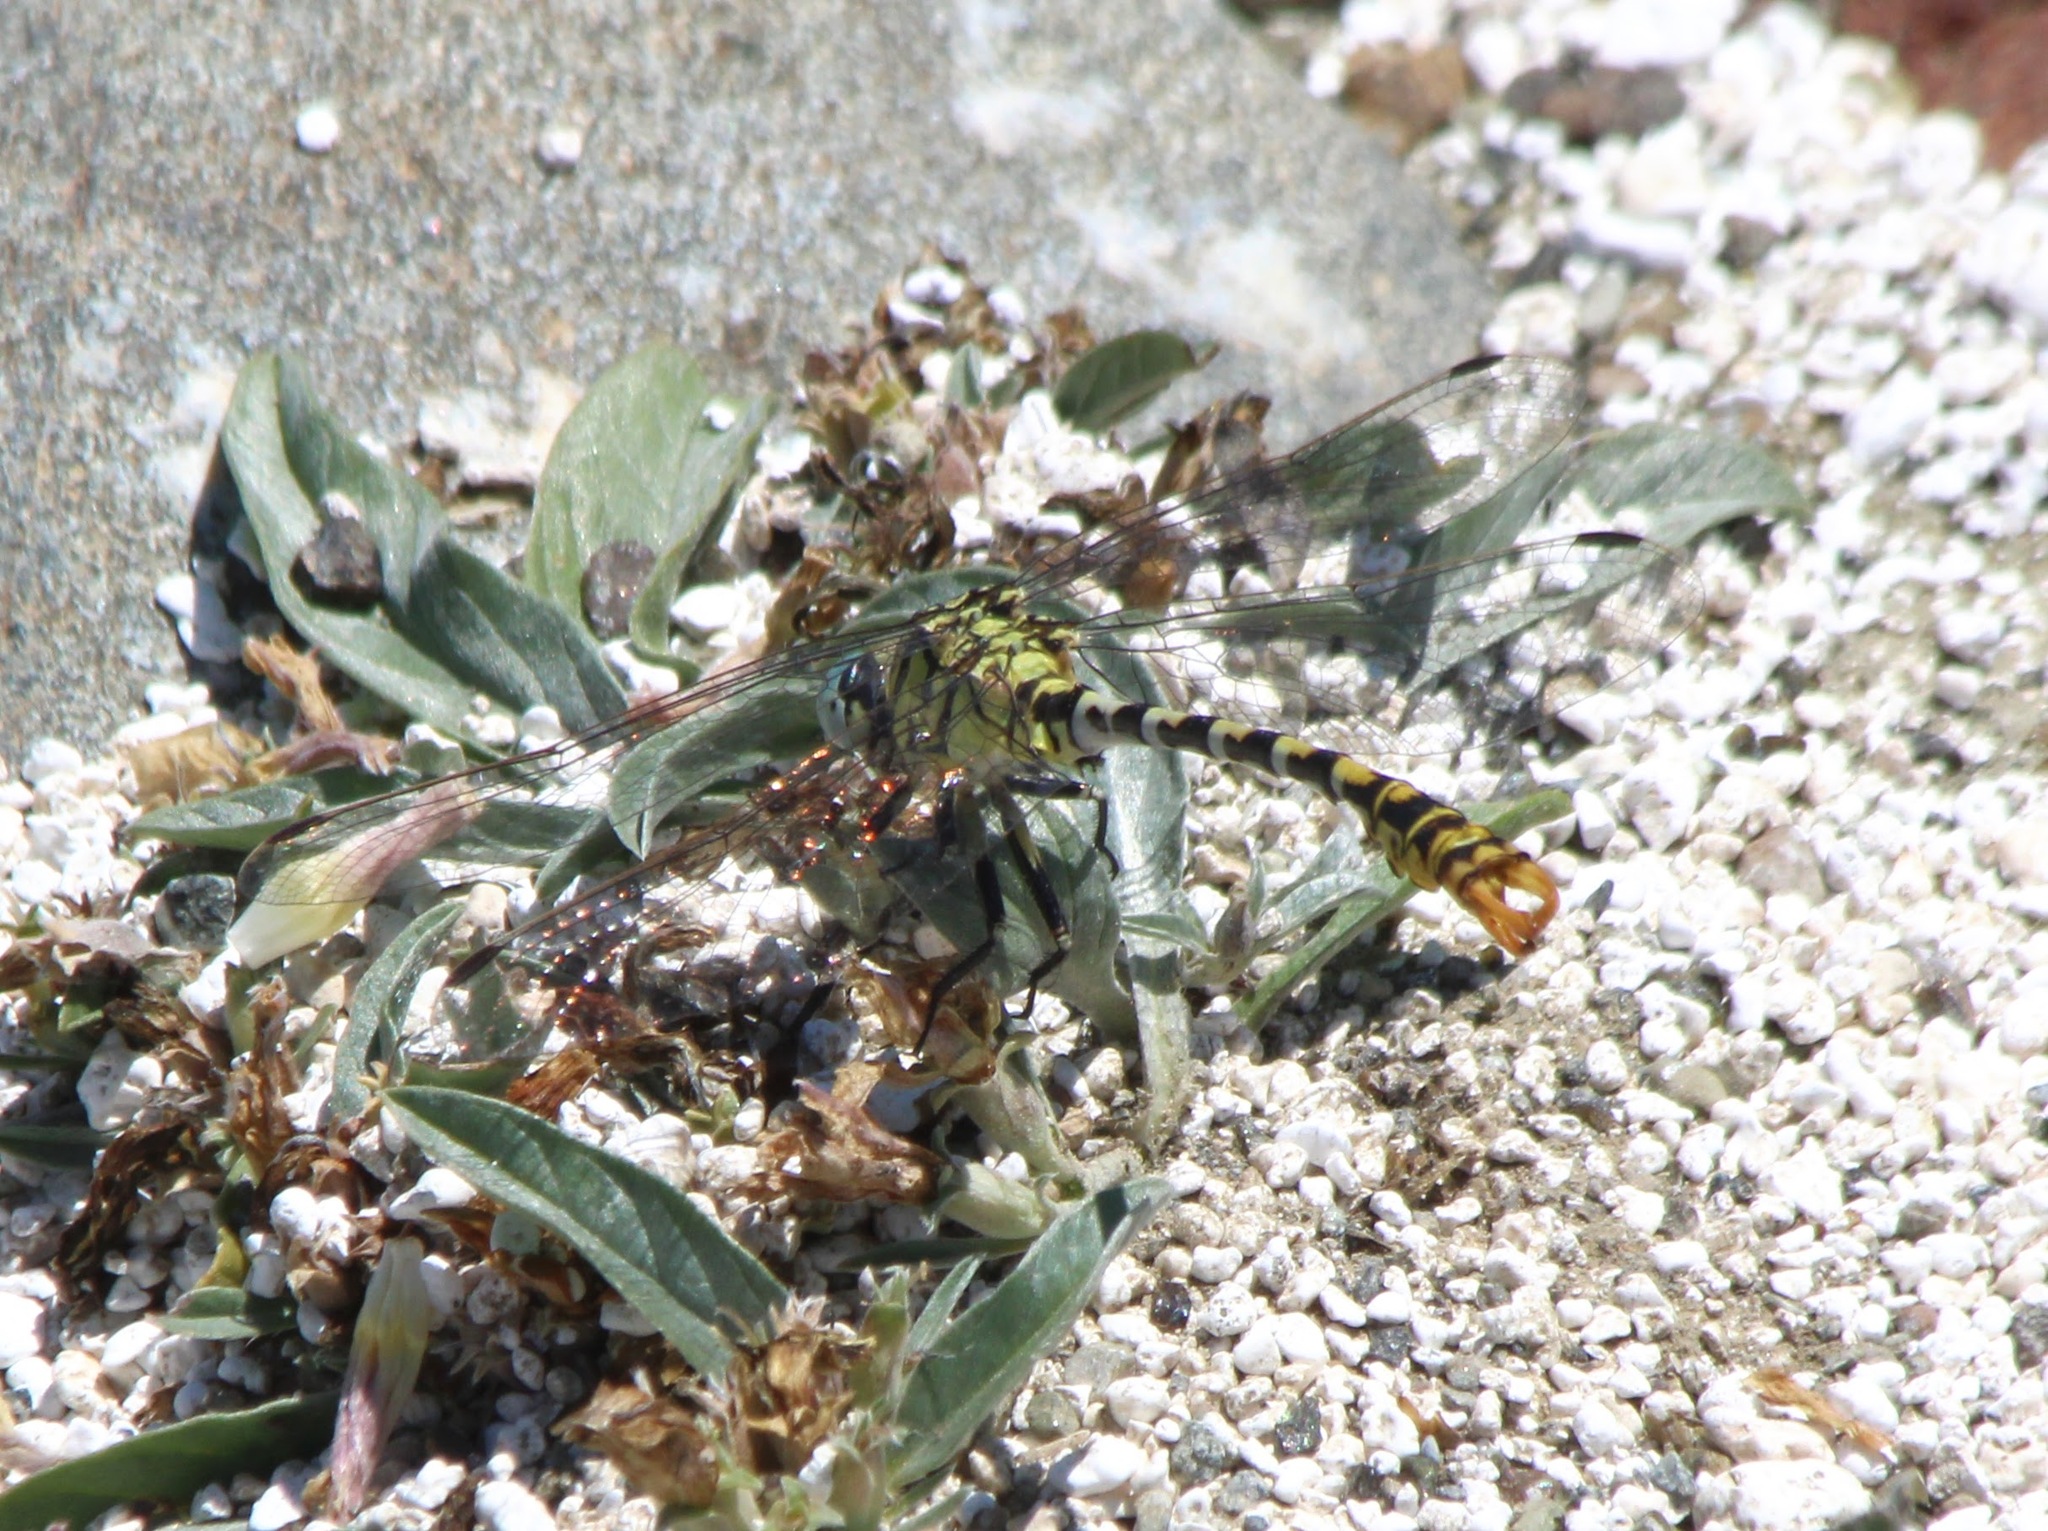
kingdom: Animalia
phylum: Arthropoda
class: Insecta
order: Odonata
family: Gomphidae
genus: Onychogomphus
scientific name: Onychogomphus forcipatus
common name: Small pincertail
